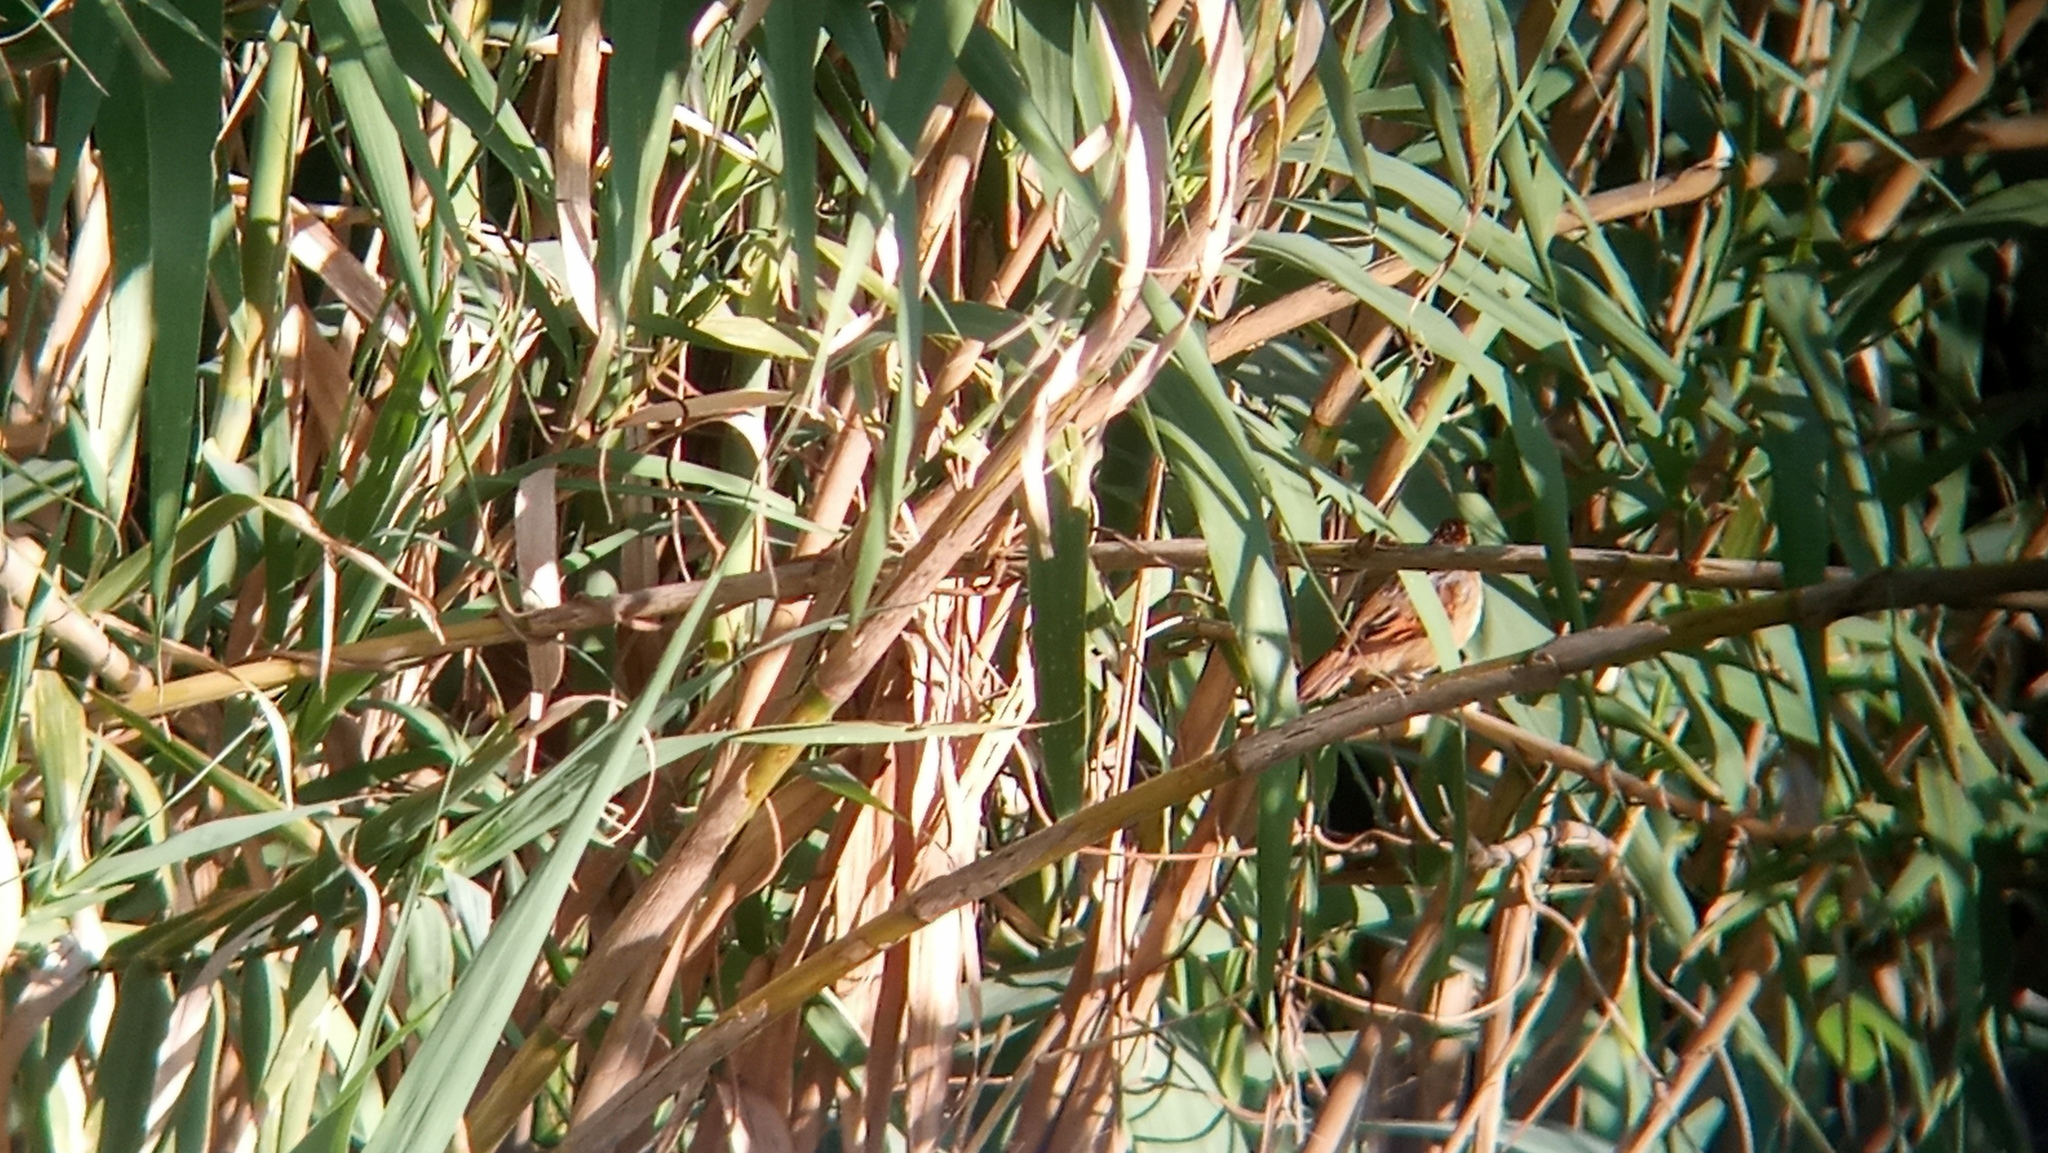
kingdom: Animalia
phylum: Chordata
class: Aves
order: Passeriformes
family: Furnariidae
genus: Phleocryptes
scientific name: Phleocryptes melanops
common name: Wren-like rushbird
